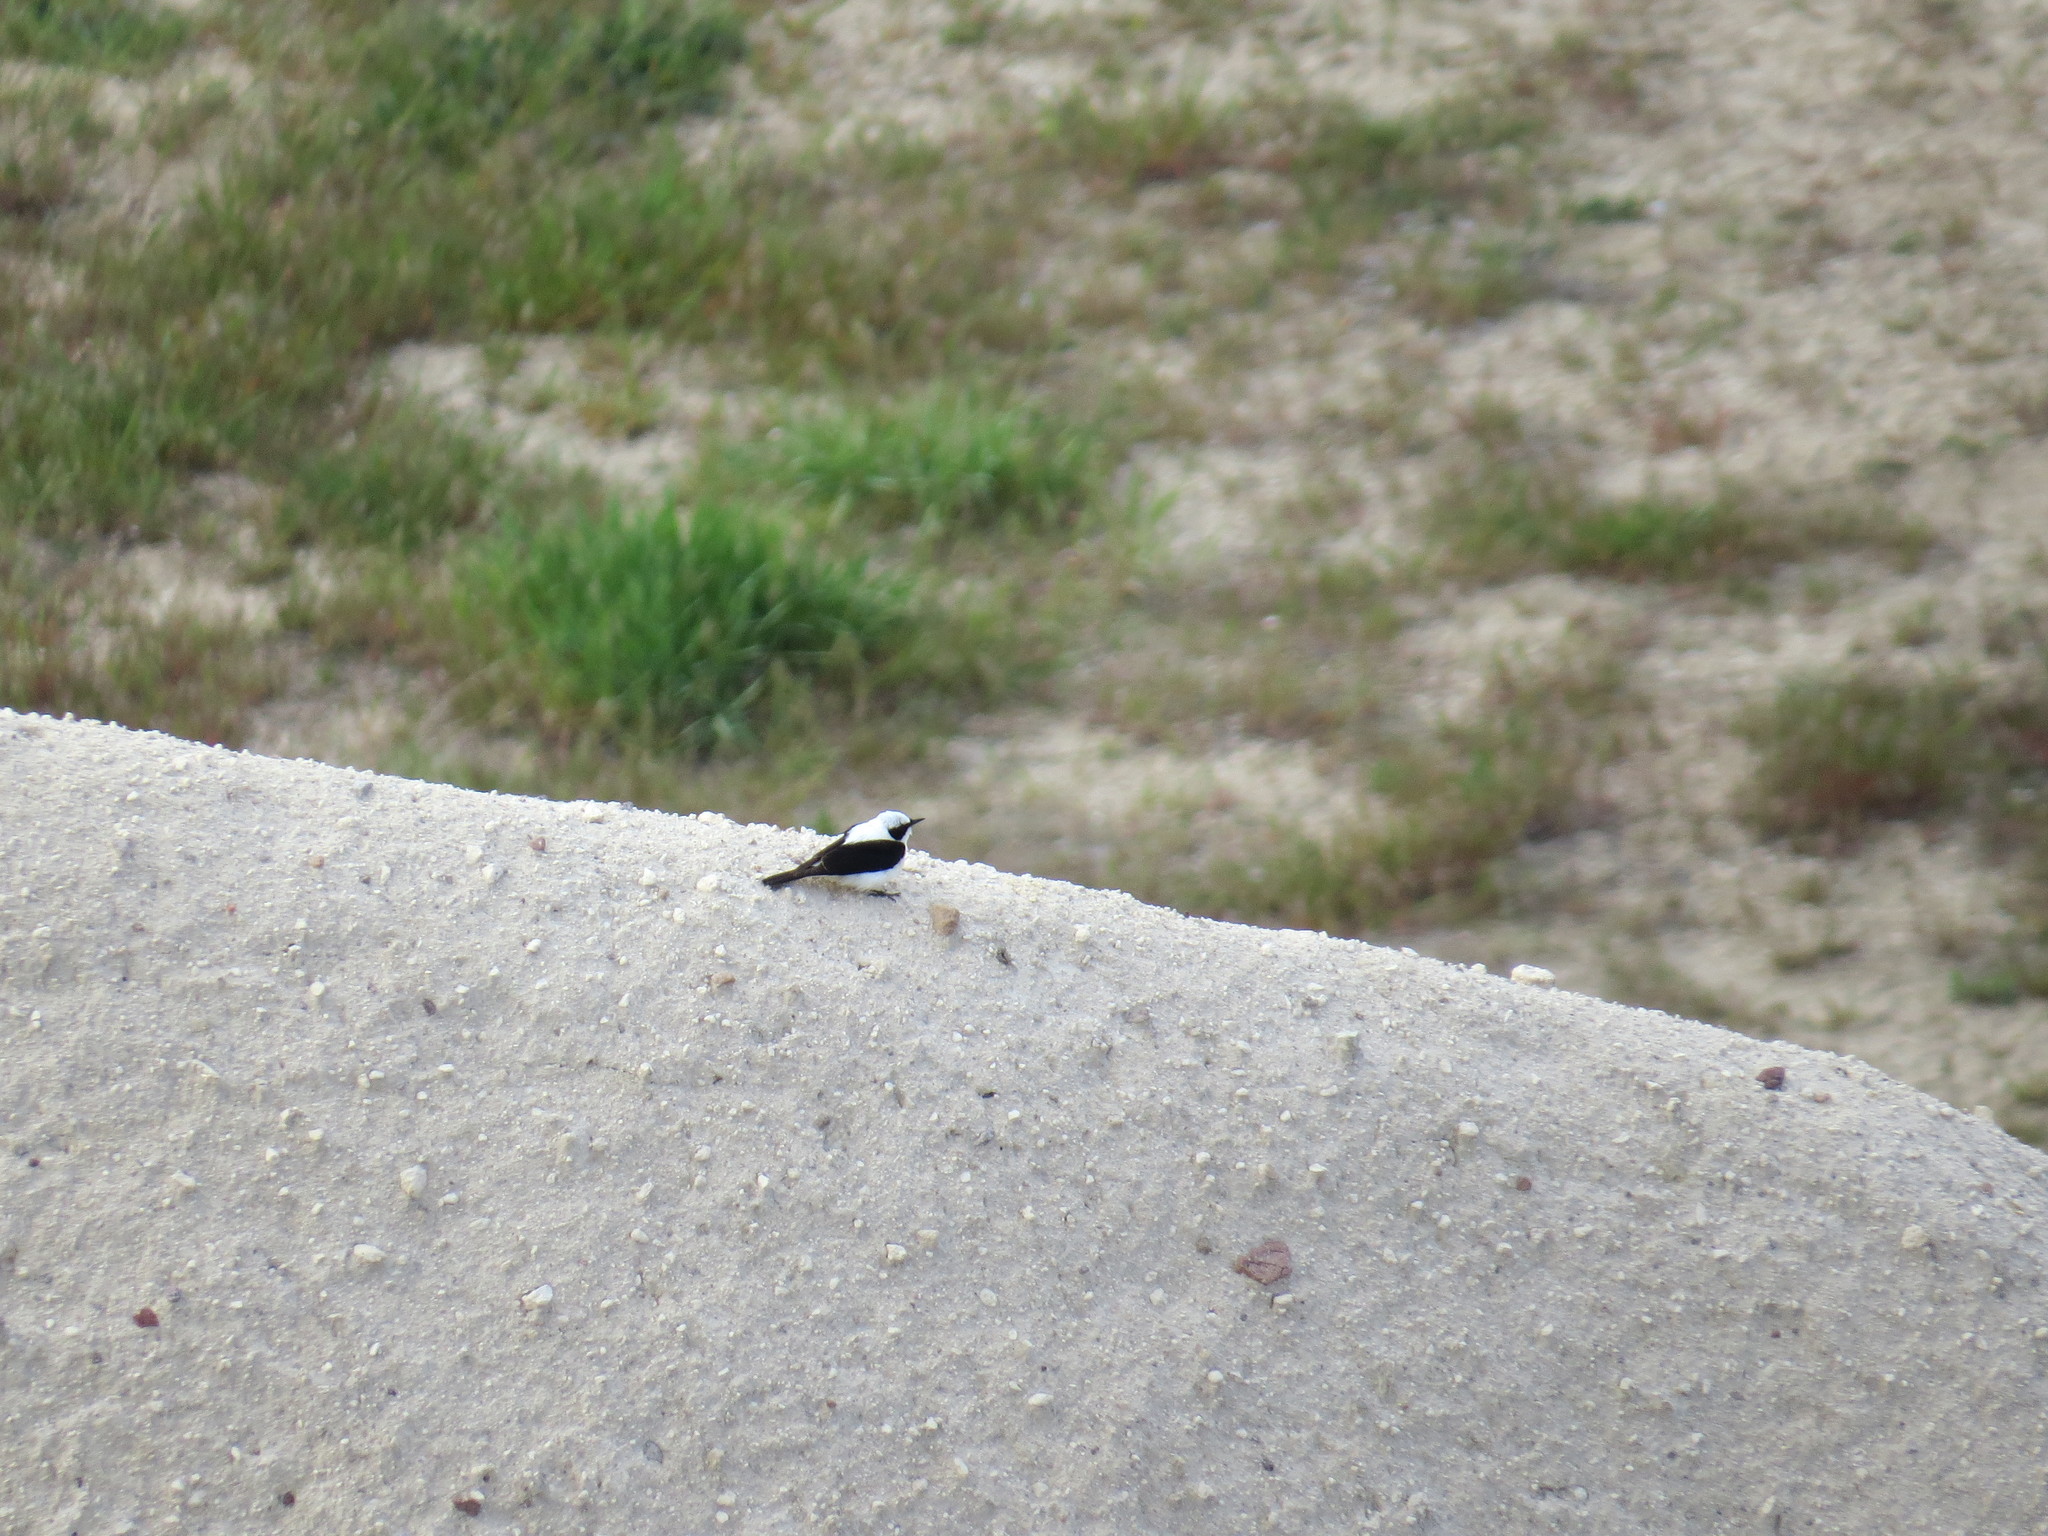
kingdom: Animalia
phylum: Chordata
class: Aves
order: Passeriformes
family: Muscicapidae
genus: Oenanthe
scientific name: Oenanthe hispanica
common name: Black-eared wheatear
